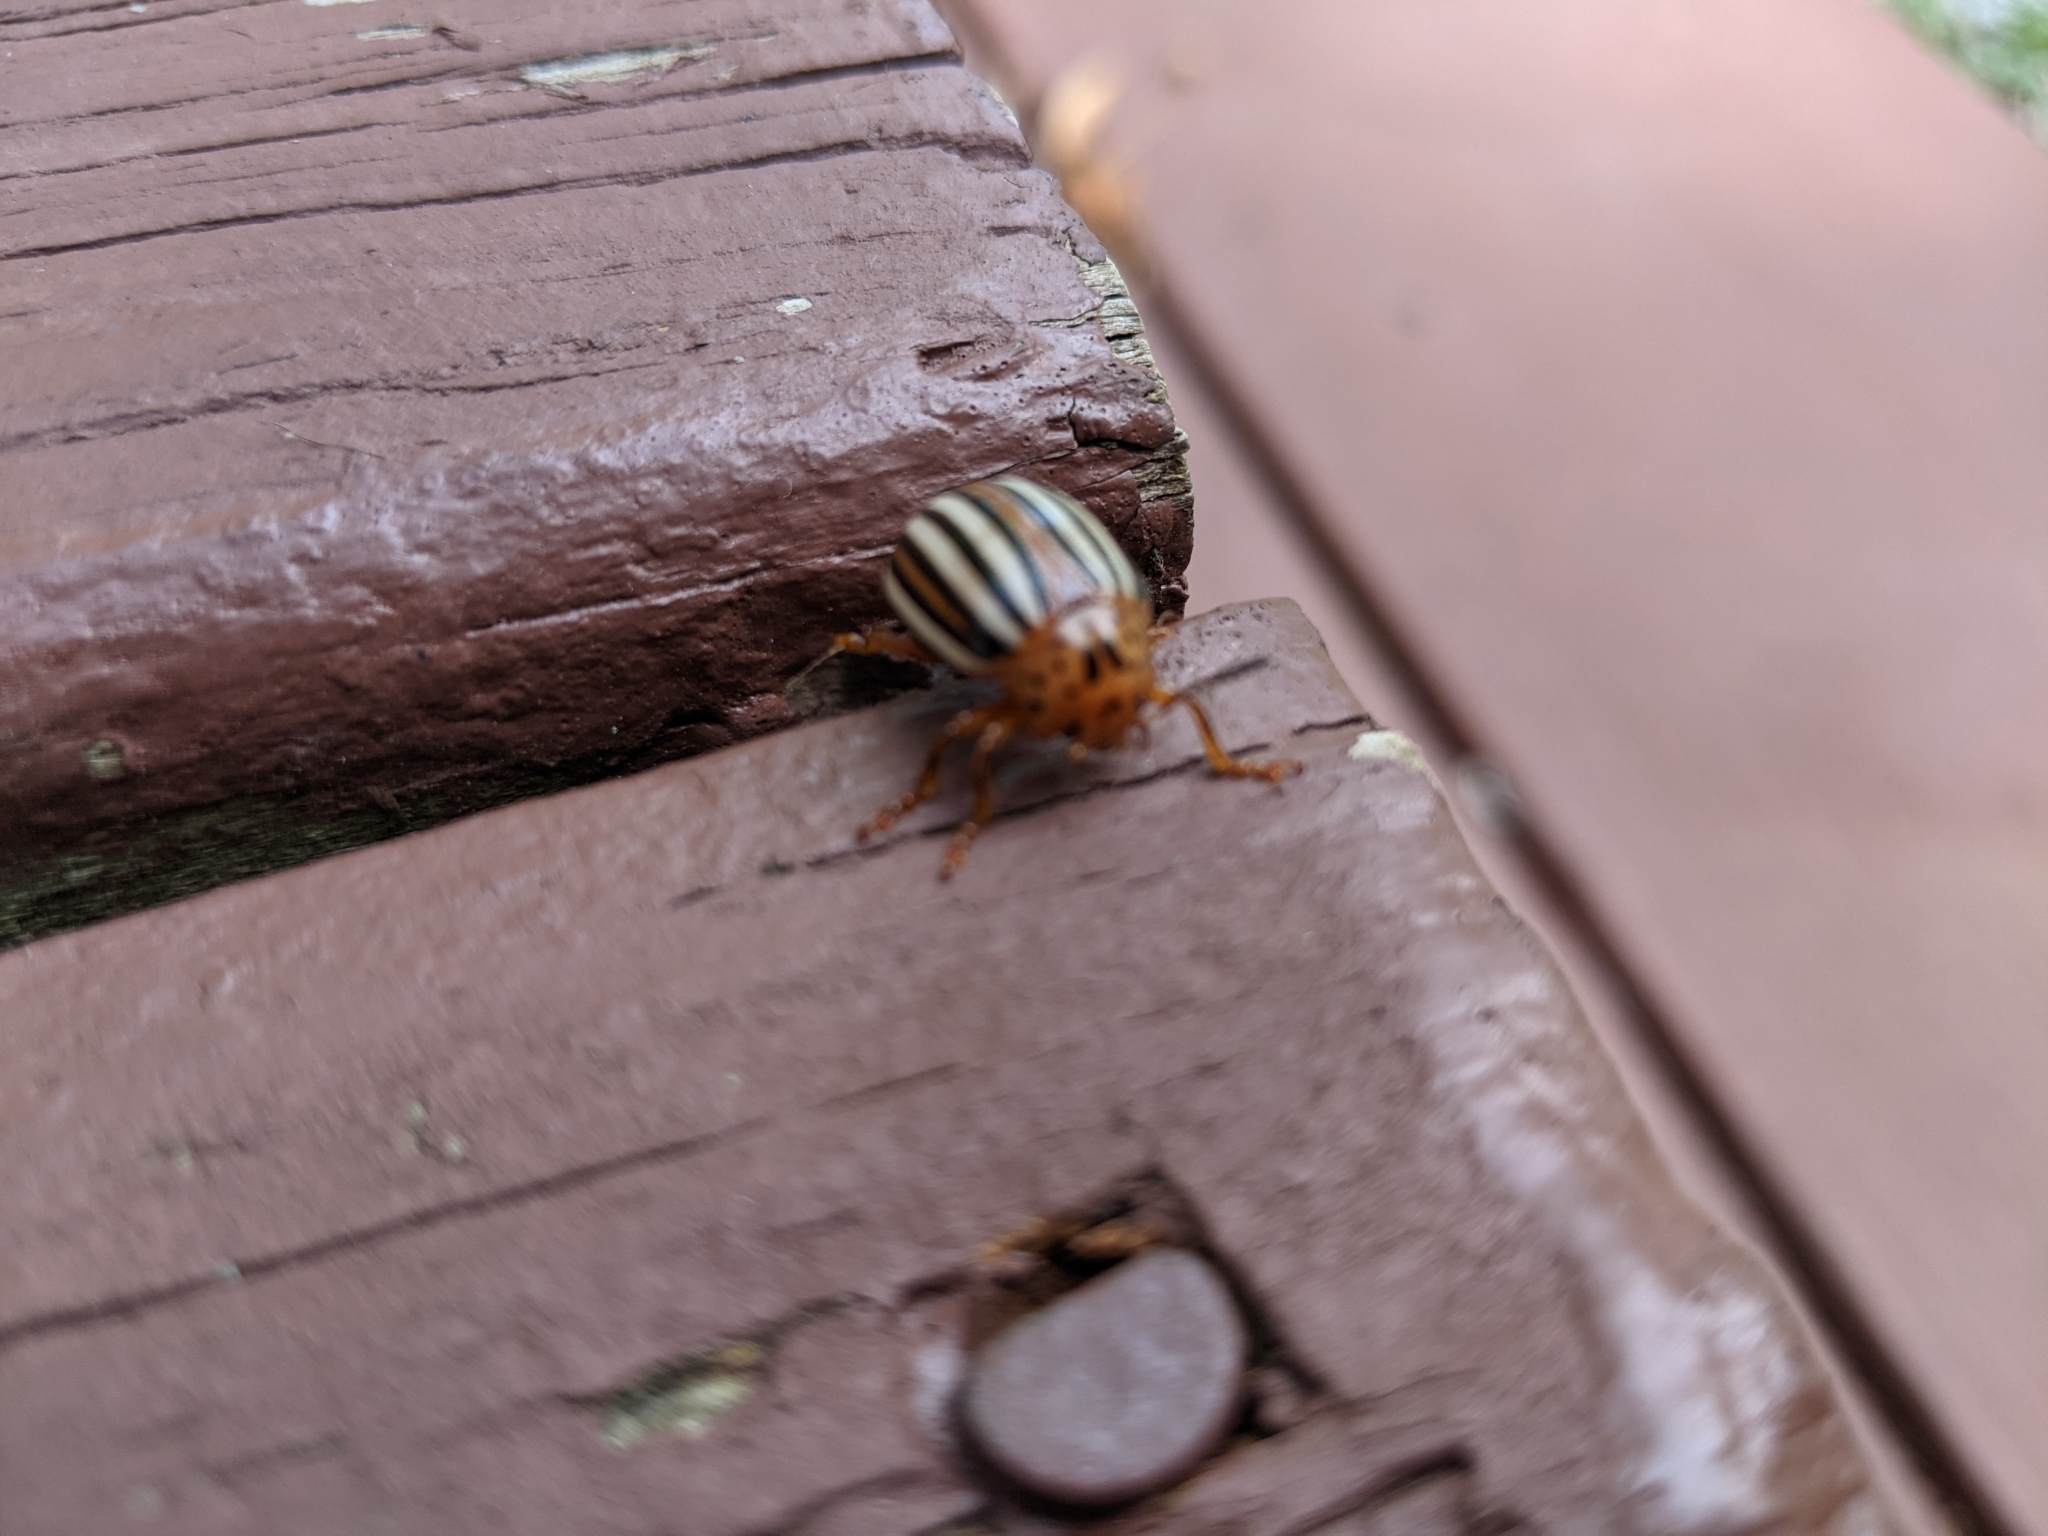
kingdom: Animalia
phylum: Arthropoda
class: Insecta
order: Coleoptera
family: Chrysomelidae
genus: Leptinotarsa
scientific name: Leptinotarsa juncta
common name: False potato beetle
